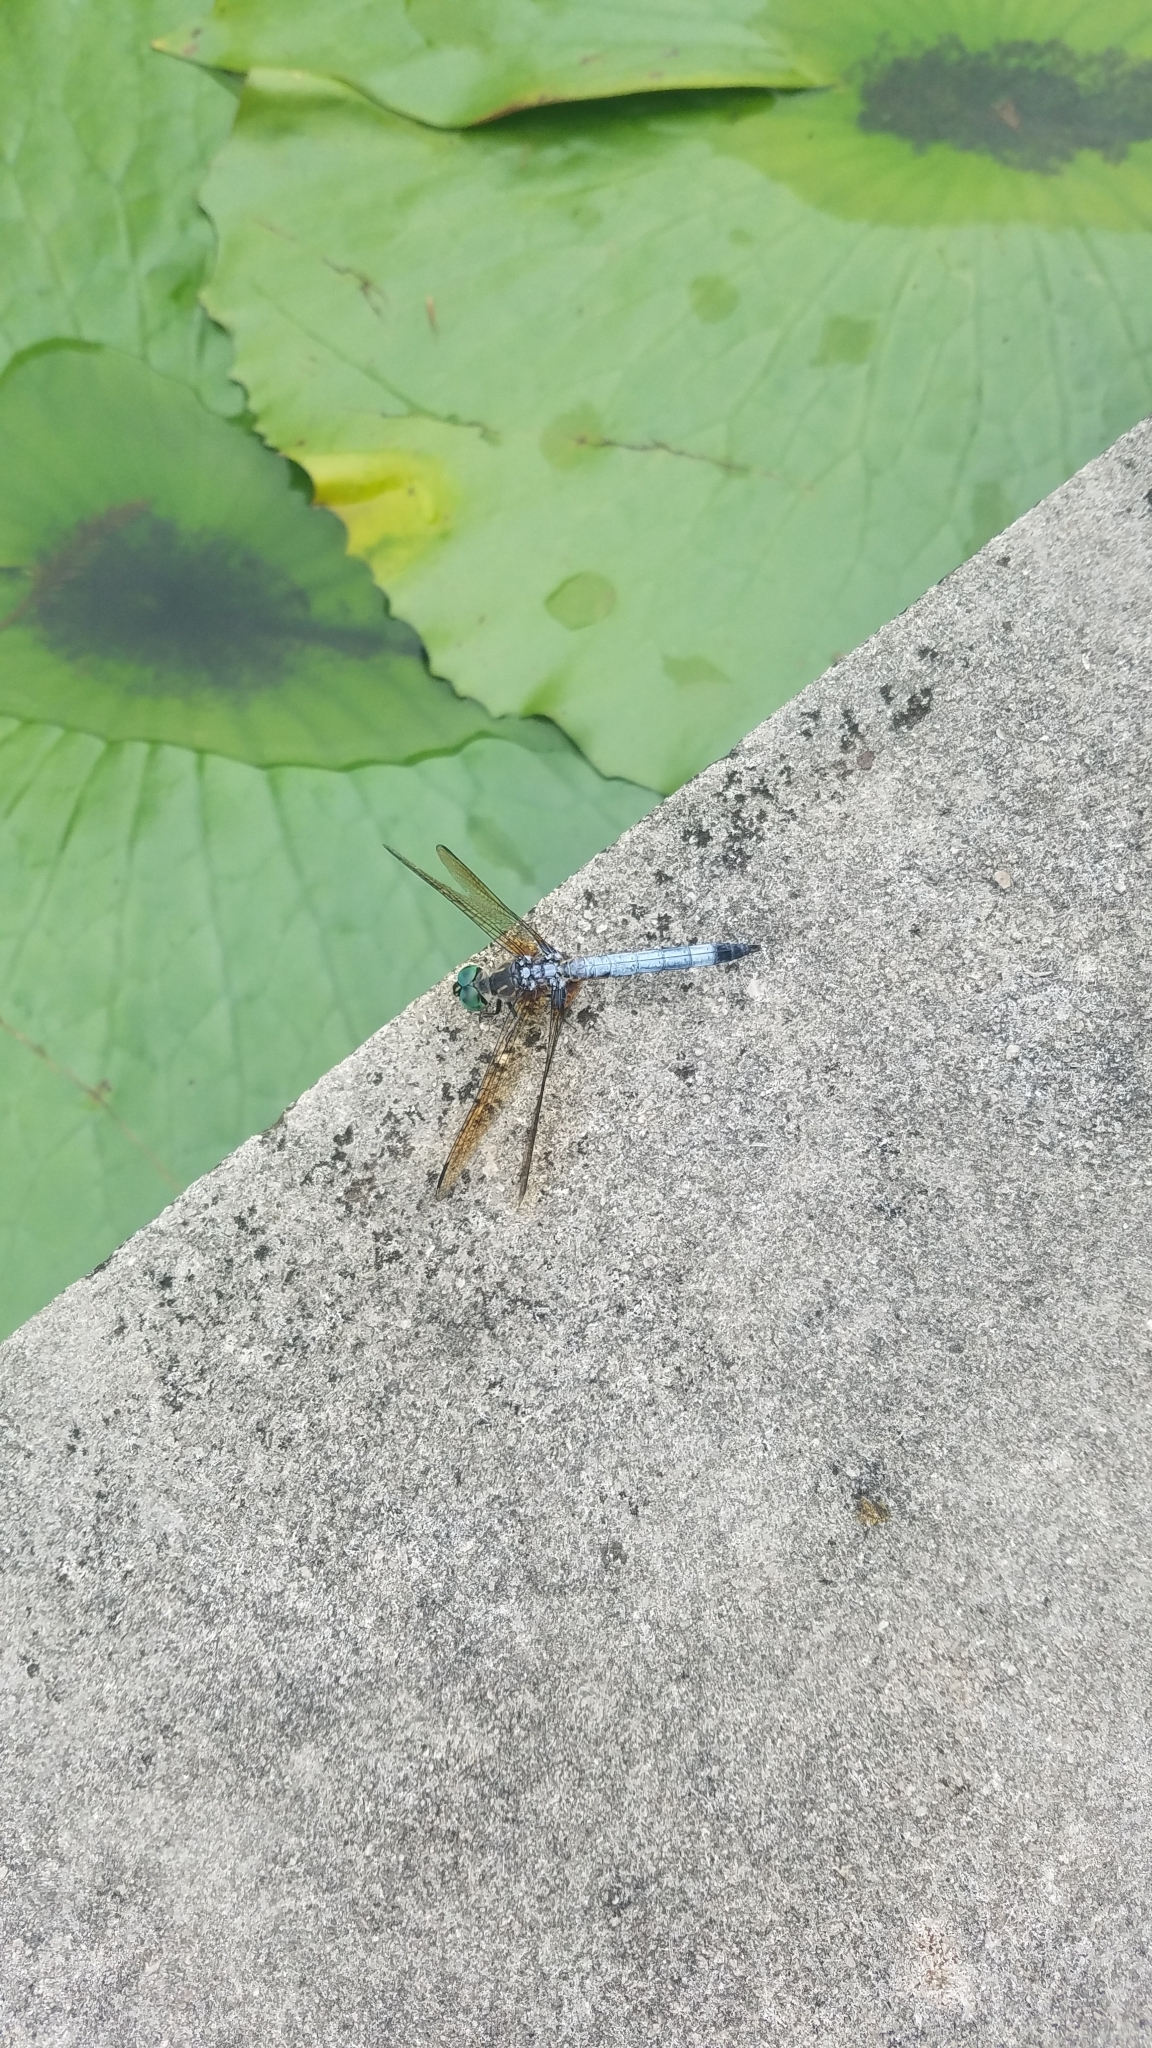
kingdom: Animalia
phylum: Arthropoda
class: Insecta
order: Odonata
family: Libellulidae
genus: Pachydiplax
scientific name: Pachydiplax longipennis
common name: Blue dasher
